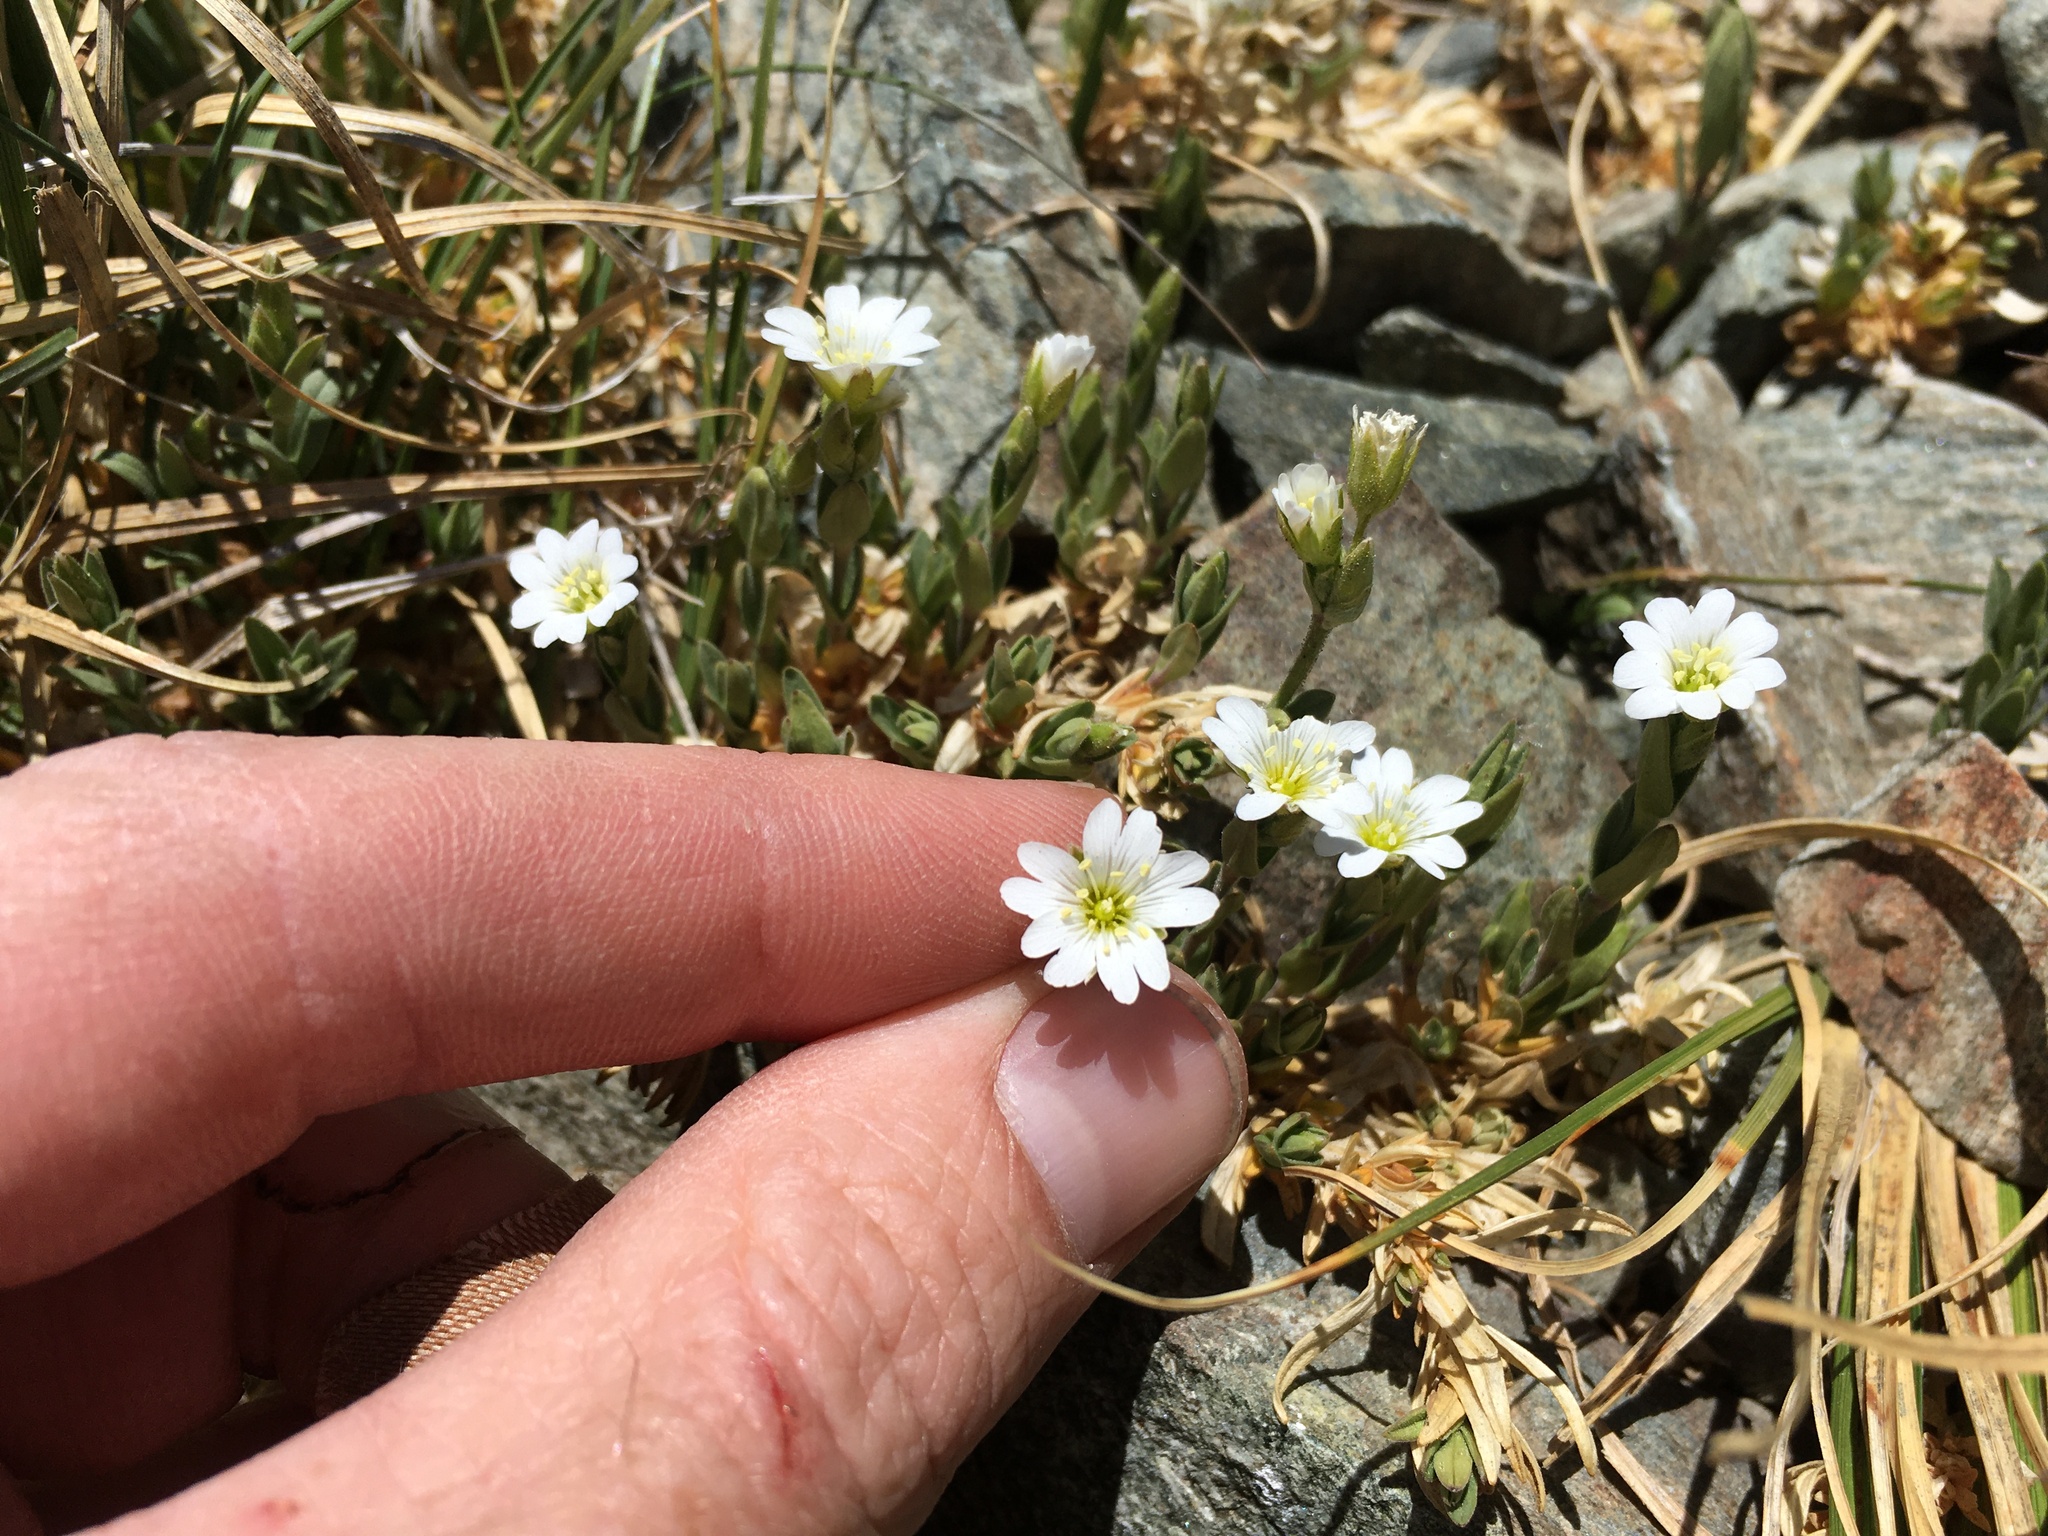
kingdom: Plantae
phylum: Tracheophyta
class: Magnoliopsida
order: Caryophyllales
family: Caryophyllaceae
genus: Cerastium
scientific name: Cerastium arvense
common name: Field mouse-ear
